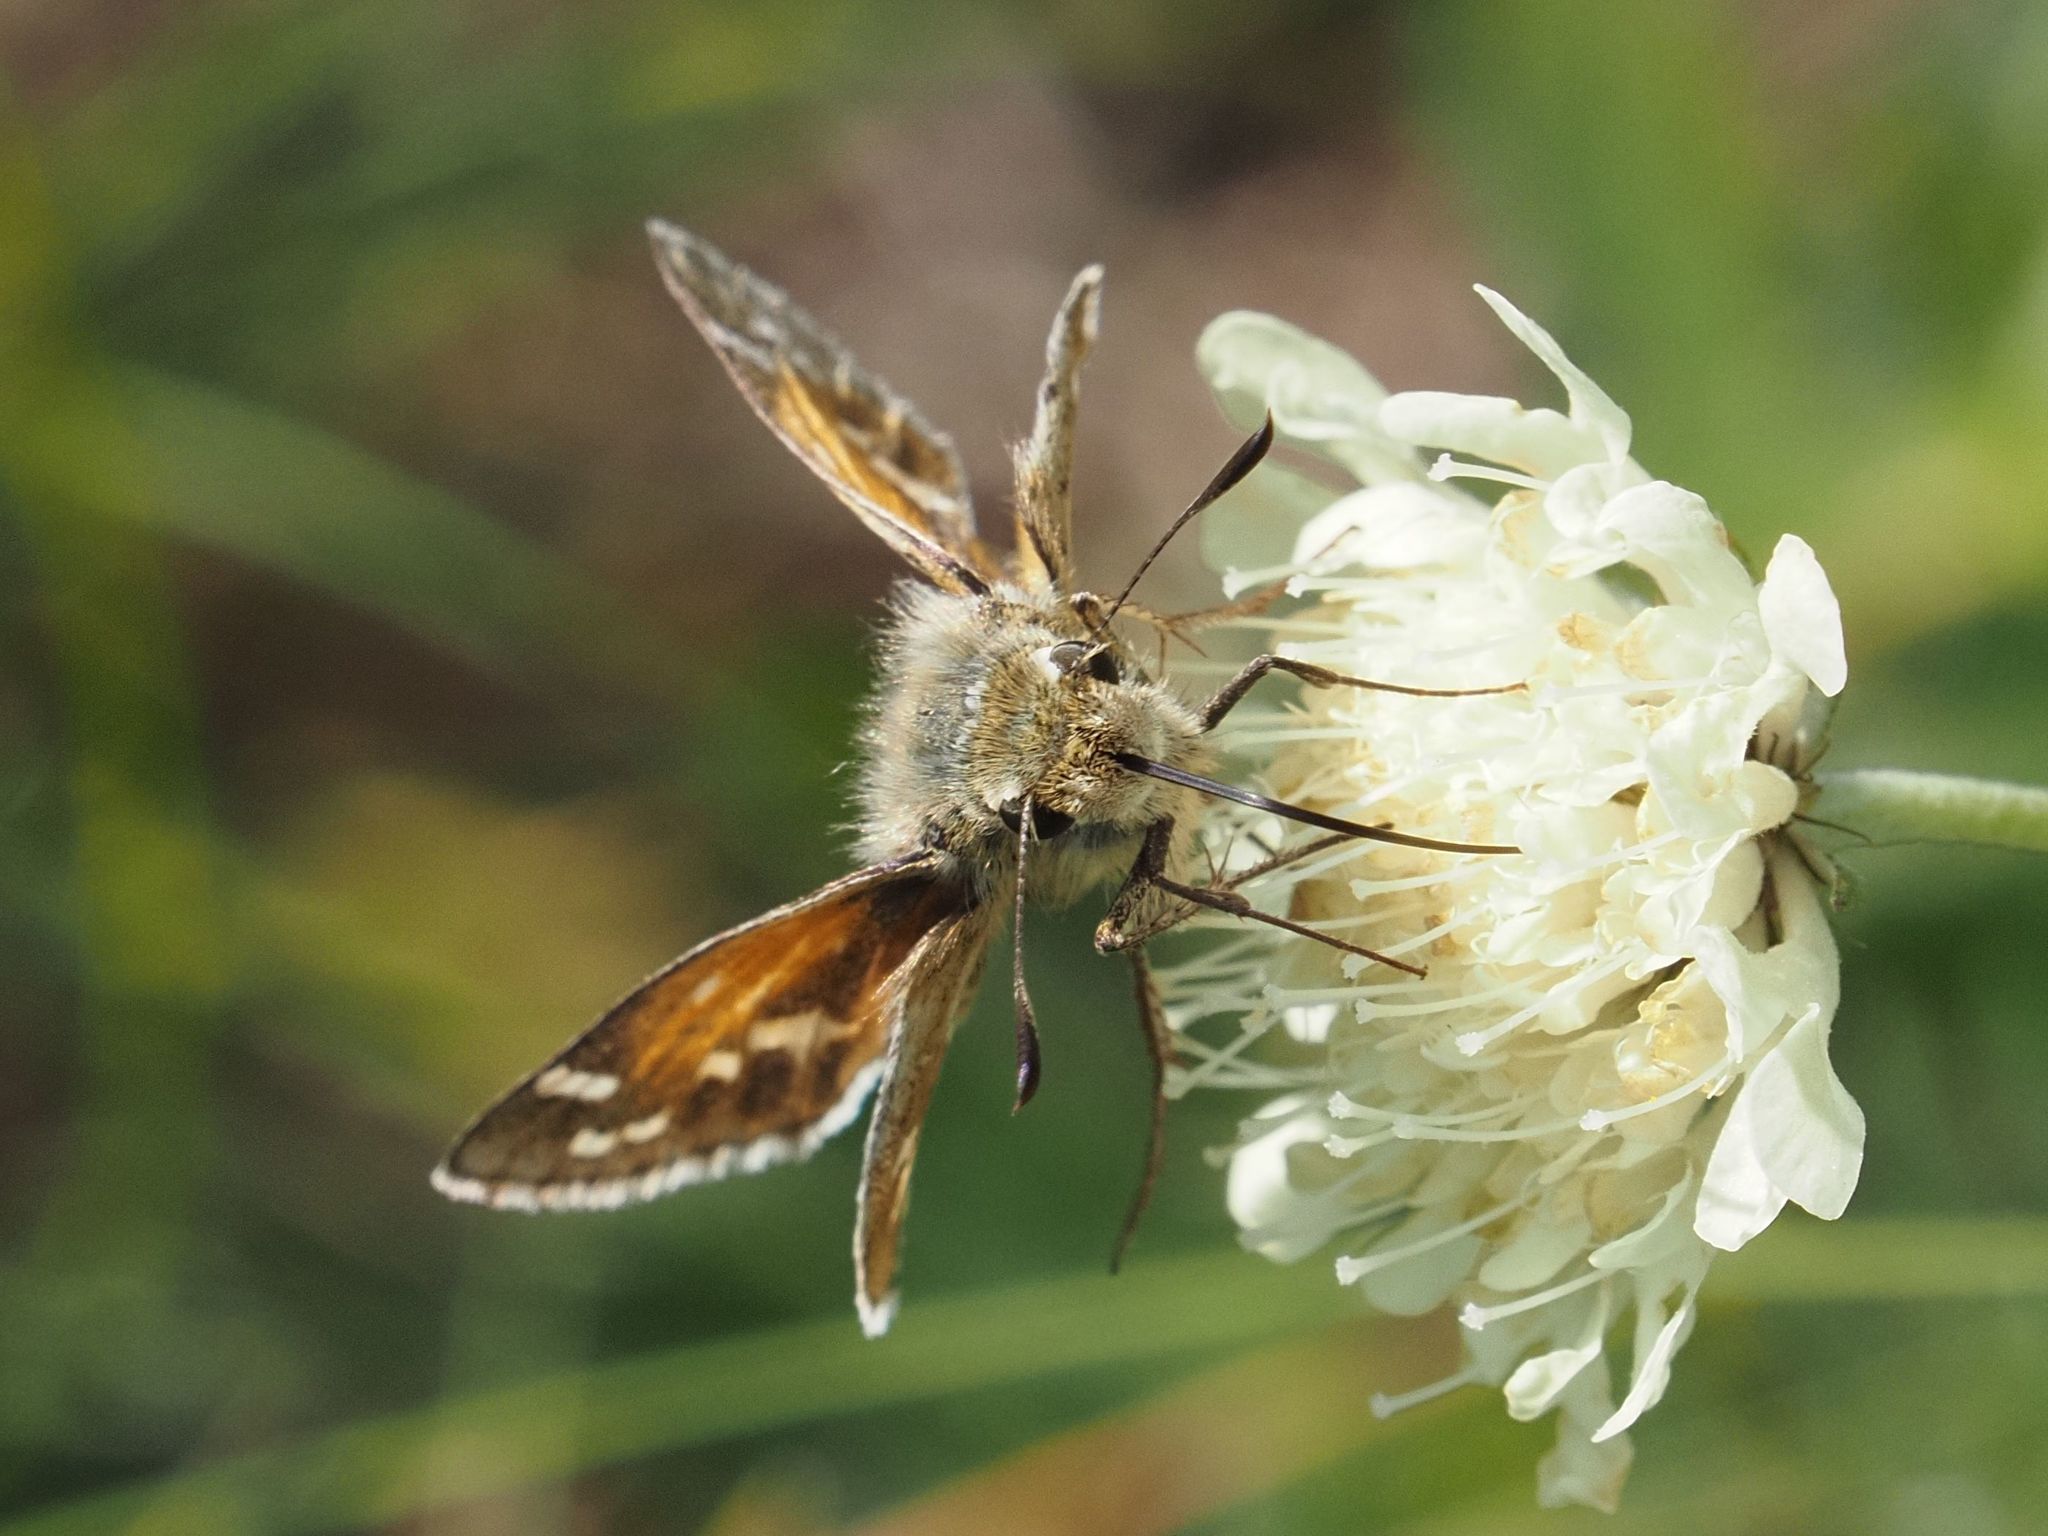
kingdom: Animalia
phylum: Arthropoda
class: Insecta
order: Lepidoptera
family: Hesperiidae
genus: Hesperia
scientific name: Hesperia comma
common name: Common branded skipper
